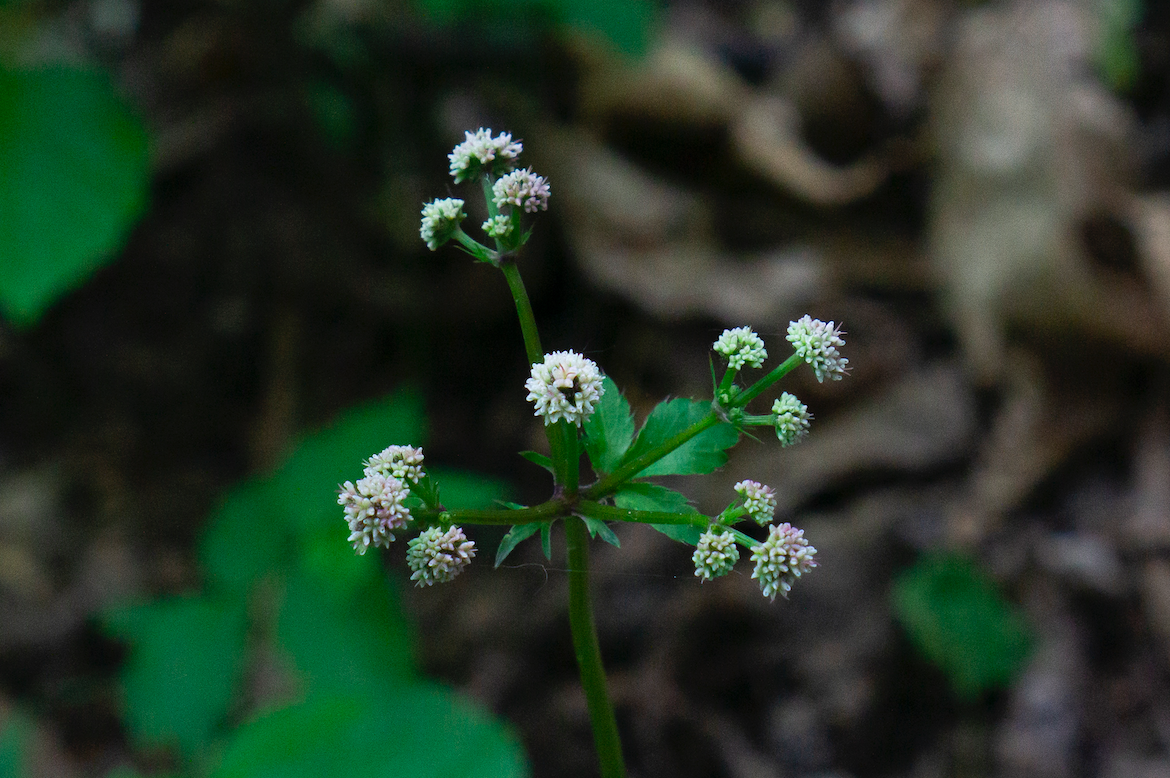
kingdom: Plantae
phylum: Tracheophyta
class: Magnoliopsida
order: Apiales
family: Apiaceae
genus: Sanicula
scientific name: Sanicula europaea
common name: Sanicle
